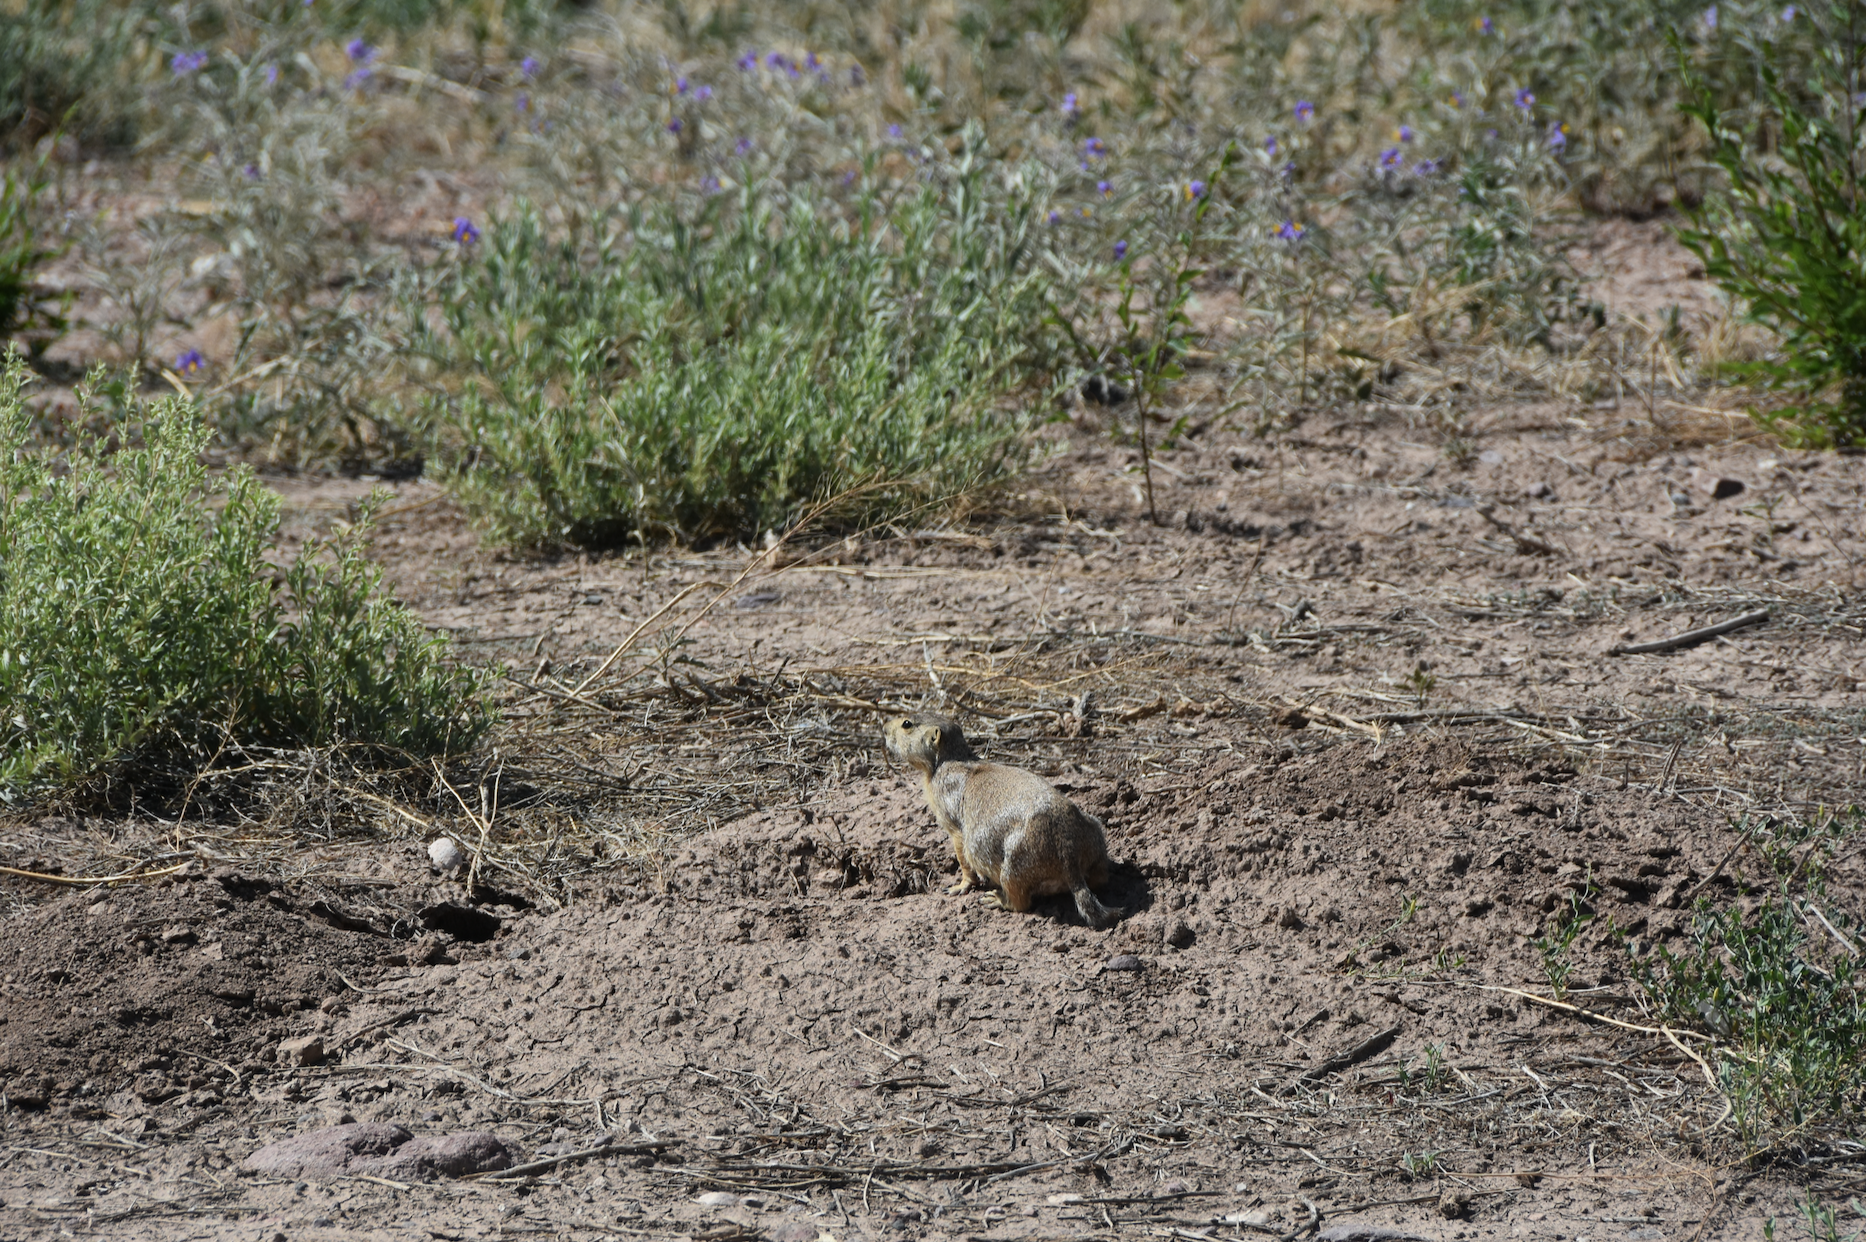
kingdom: Animalia
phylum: Chordata
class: Mammalia
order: Rodentia
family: Sciuridae
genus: Cynomys
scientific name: Cynomys gunnisoni
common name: Gunnison's prairie dog
